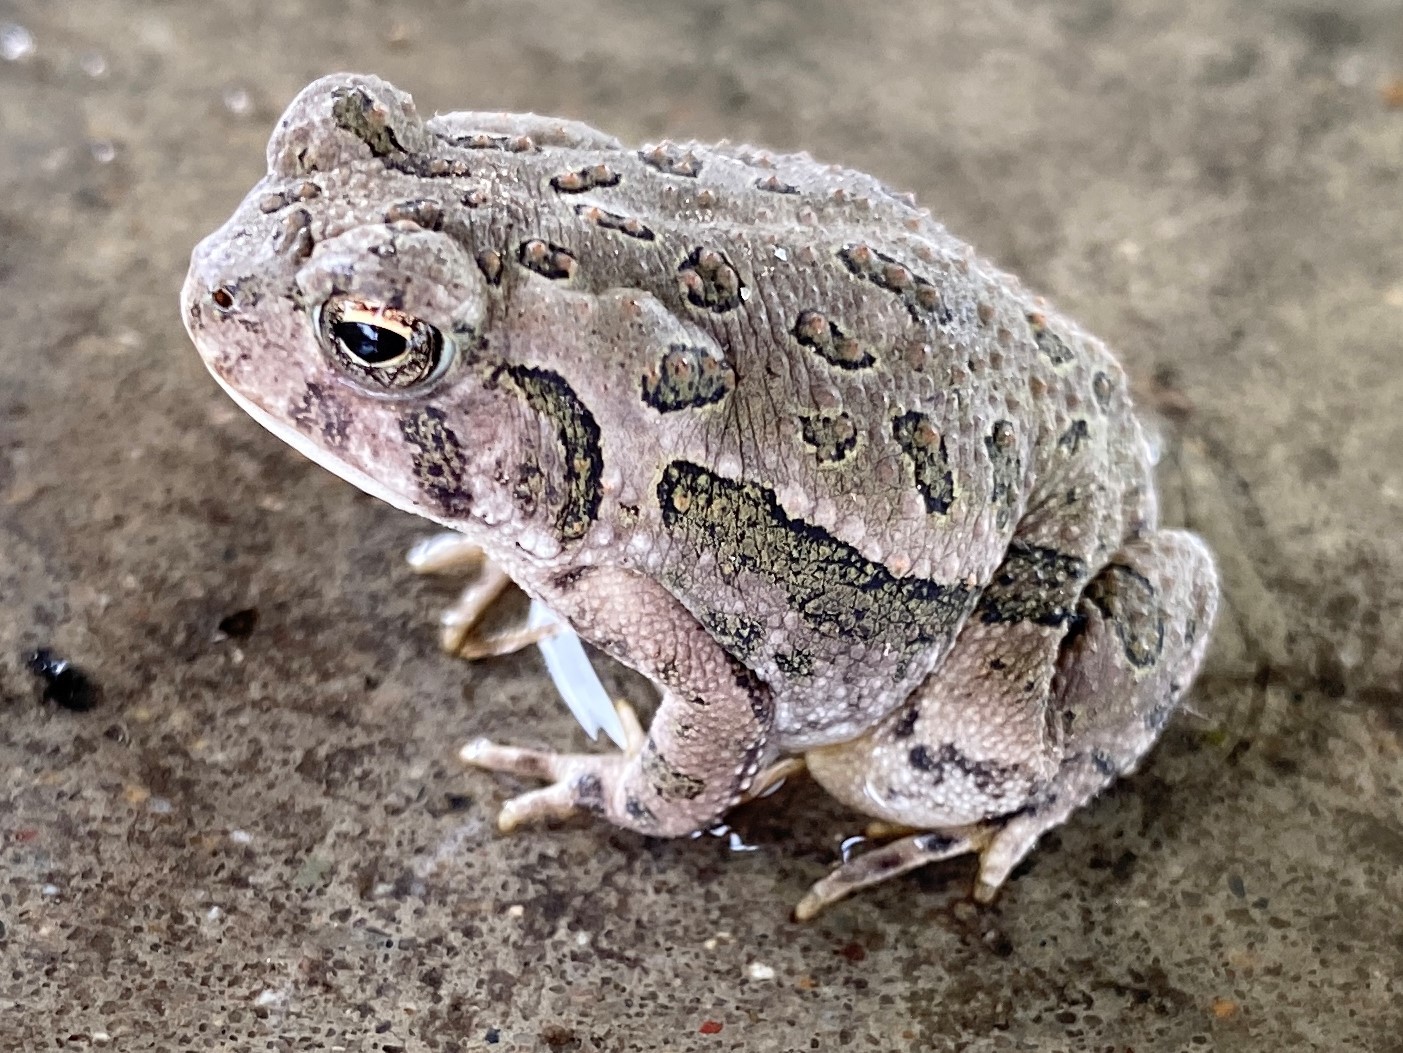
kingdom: Animalia
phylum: Chordata
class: Amphibia
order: Anura
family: Bufonidae
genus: Anaxyrus
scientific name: Anaxyrus fowleri
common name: Fowler's toad
